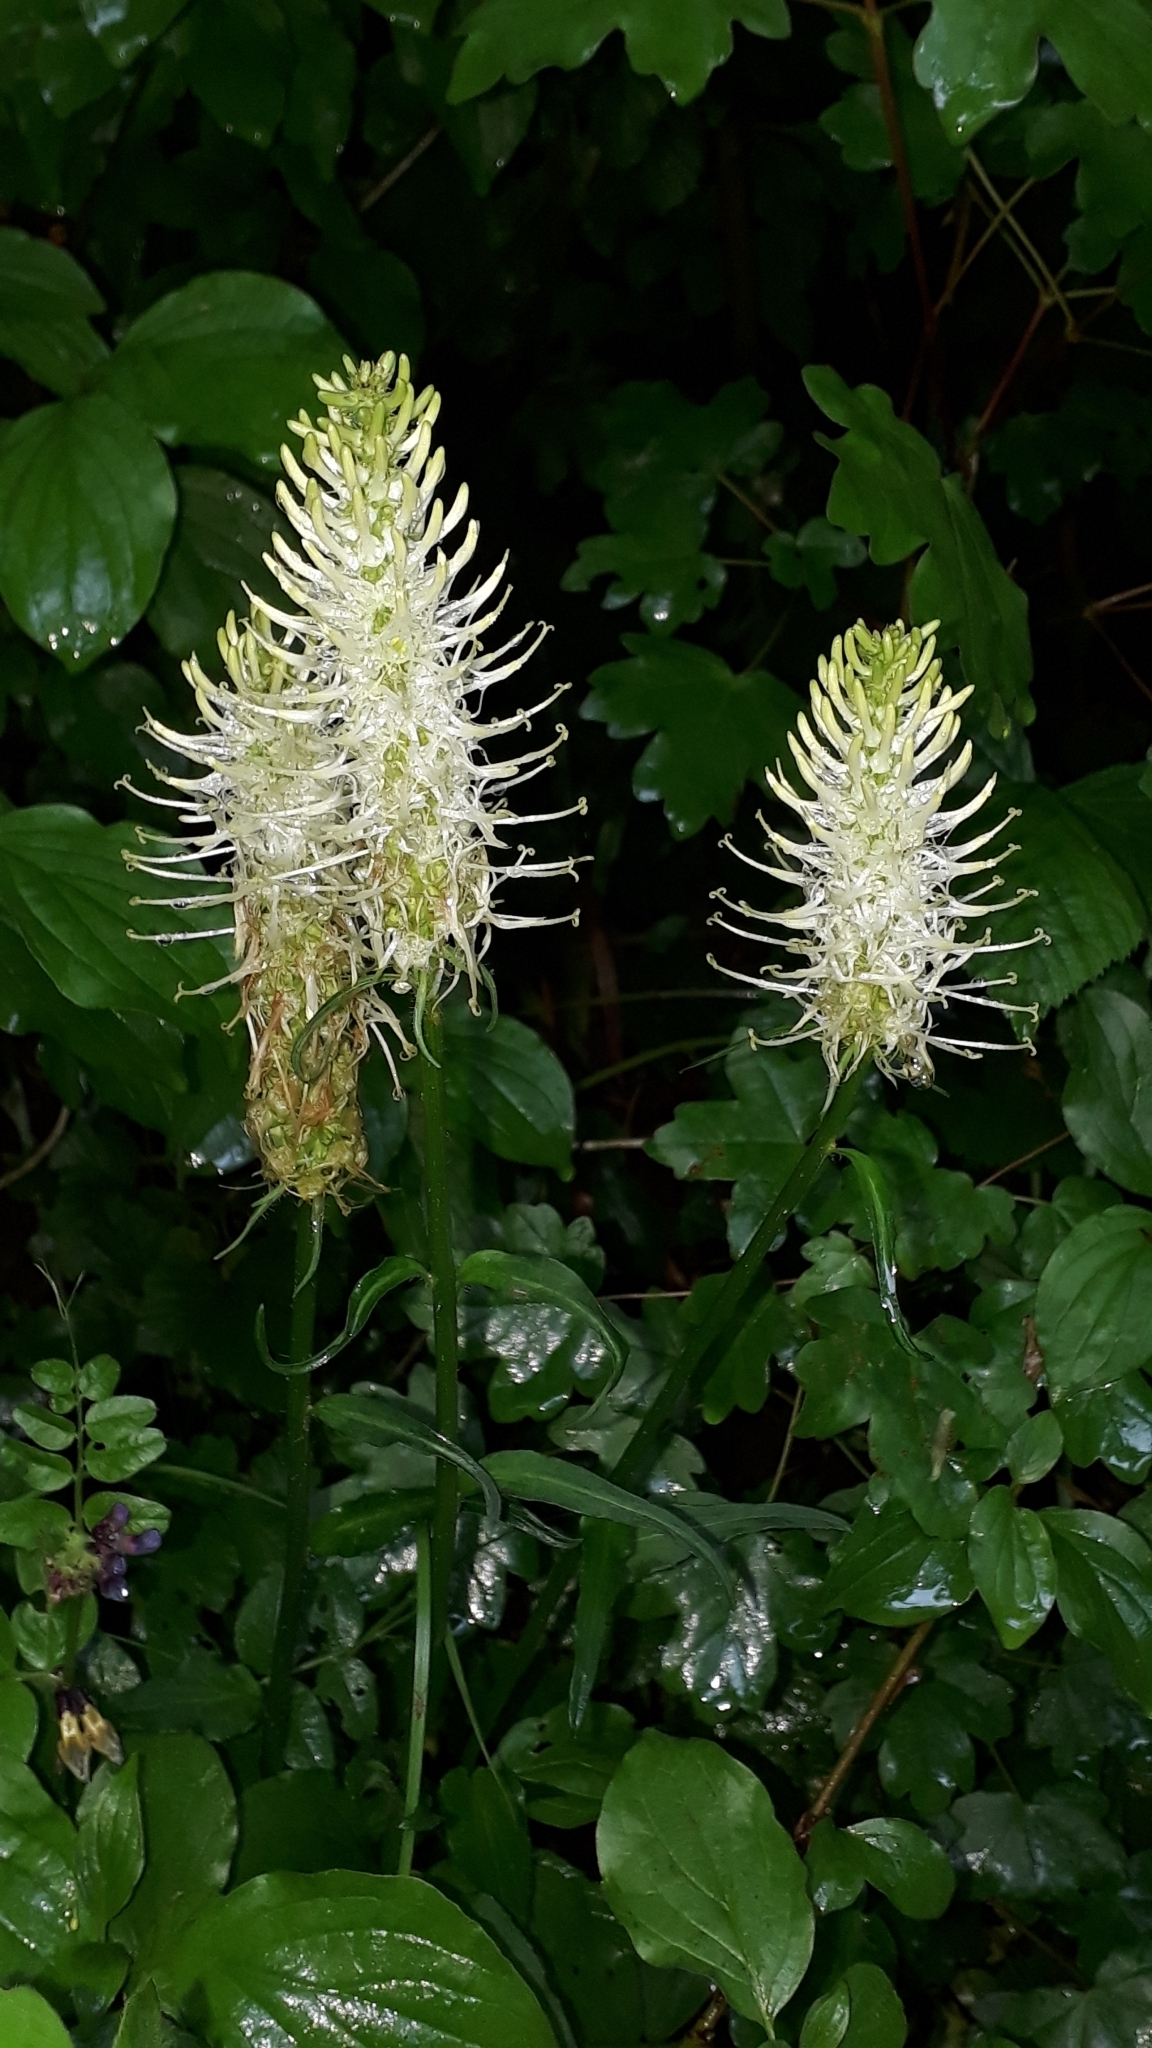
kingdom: Plantae
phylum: Tracheophyta
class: Magnoliopsida
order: Asterales
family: Campanulaceae
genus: Phyteuma
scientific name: Phyteuma spicatum
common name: Spiked rampion
